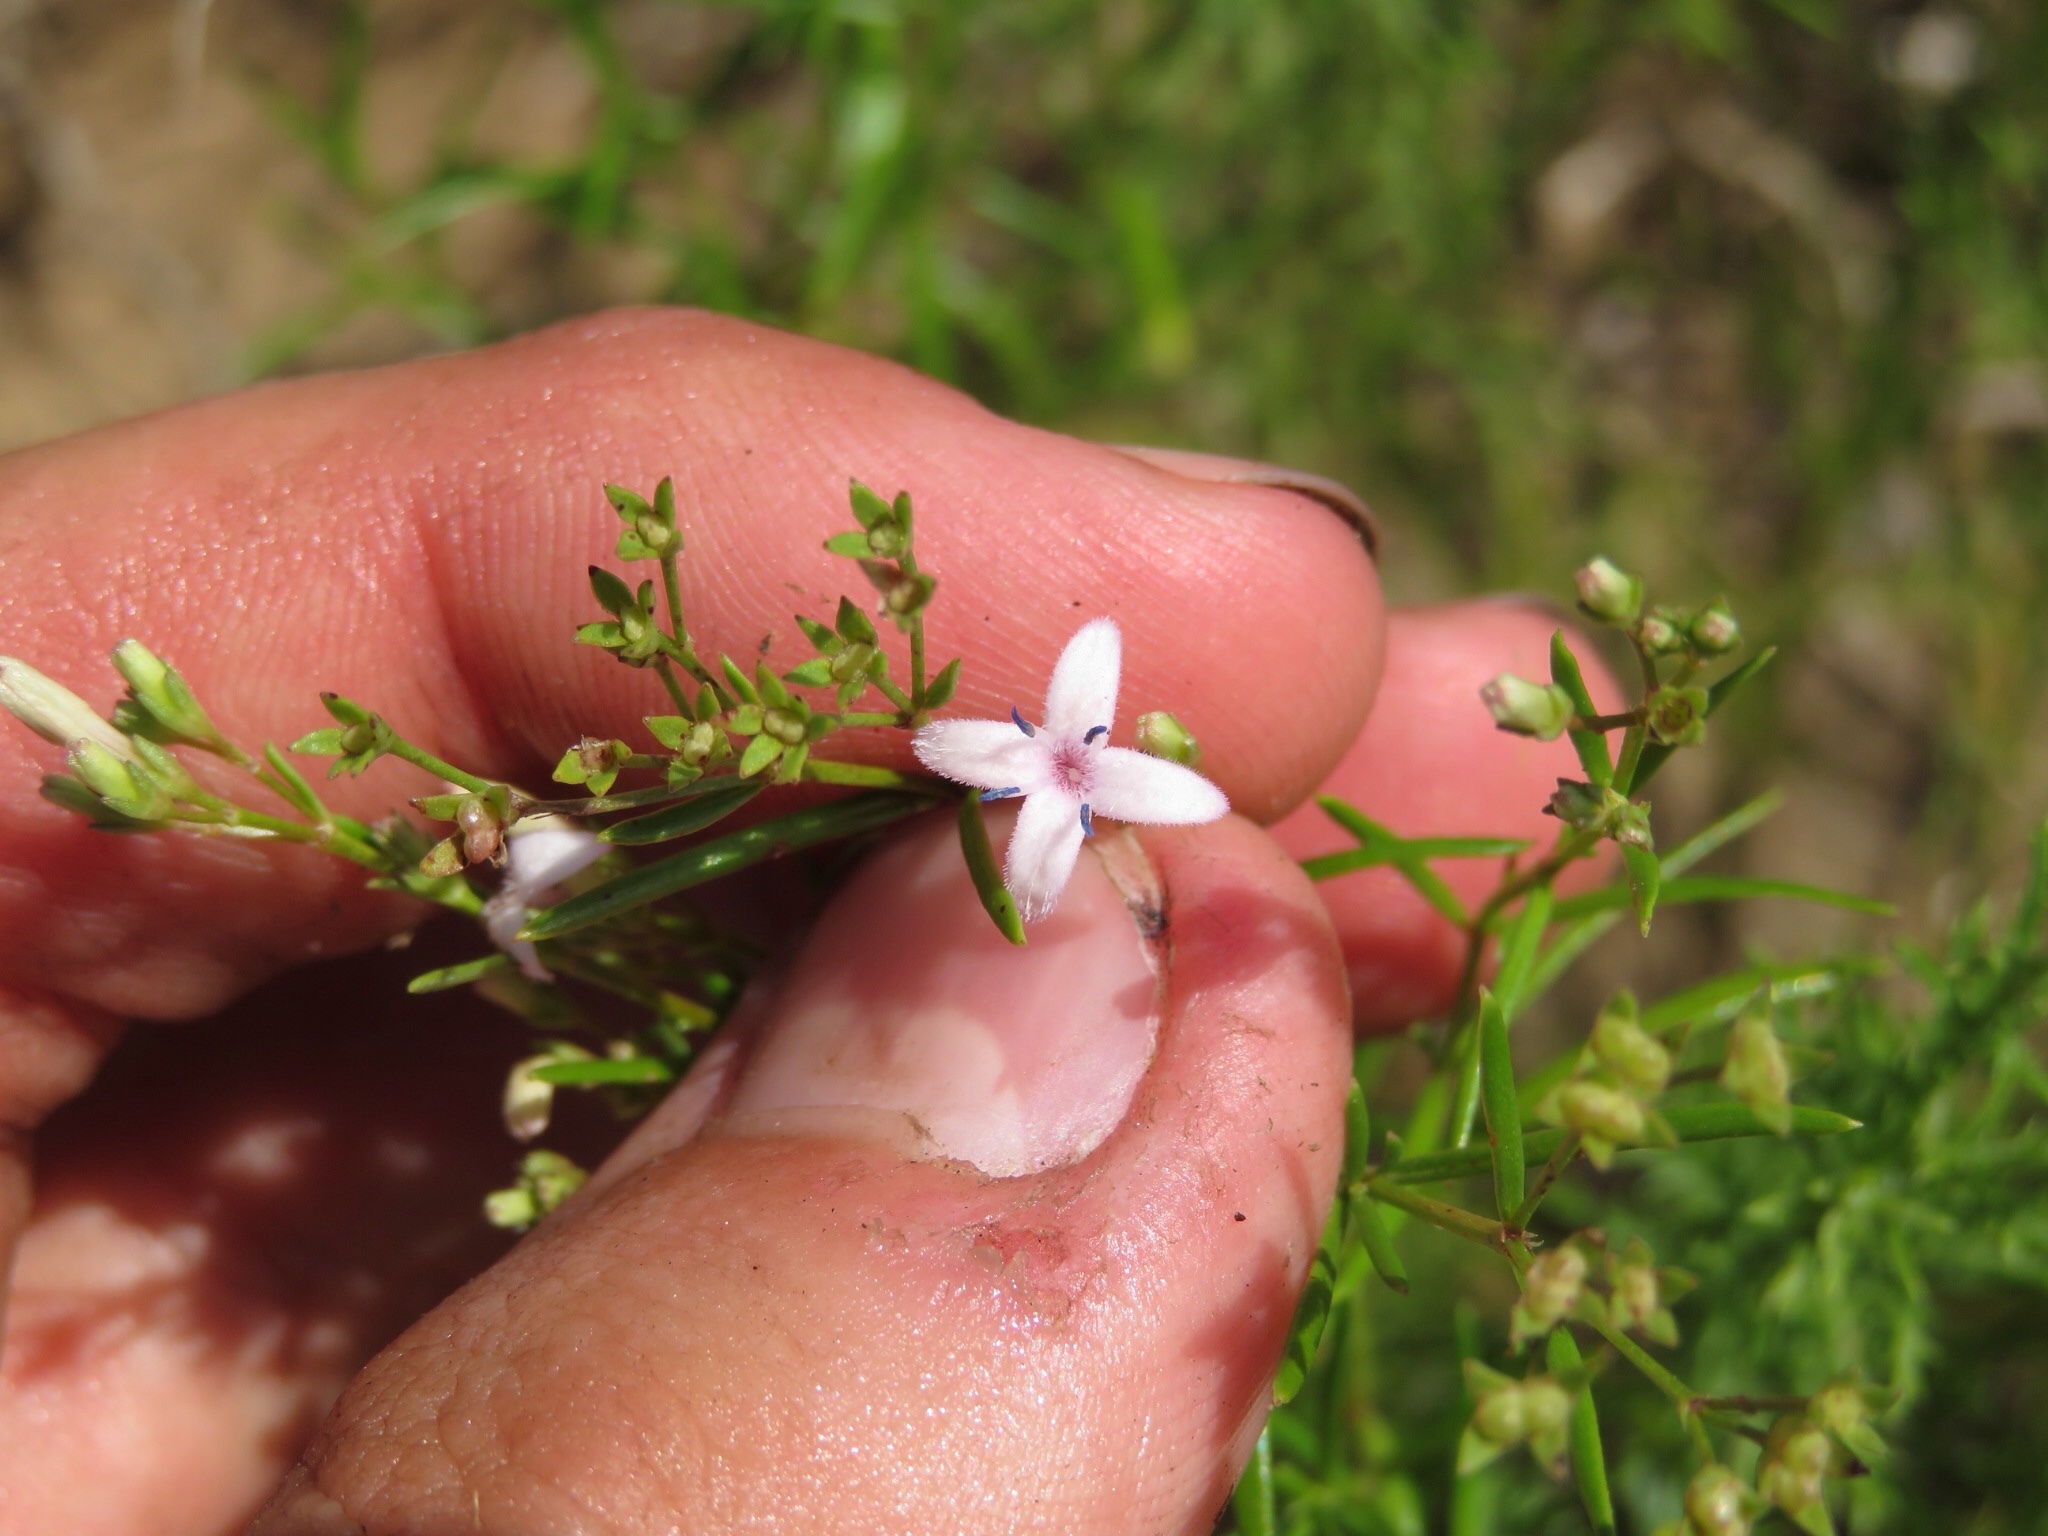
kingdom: Plantae
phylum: Tracheophyta
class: Magnoliopsida
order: Gentianales
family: Rubiaceae
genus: Stenaria
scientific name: Stenaria nigricans
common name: Diamondflowers
